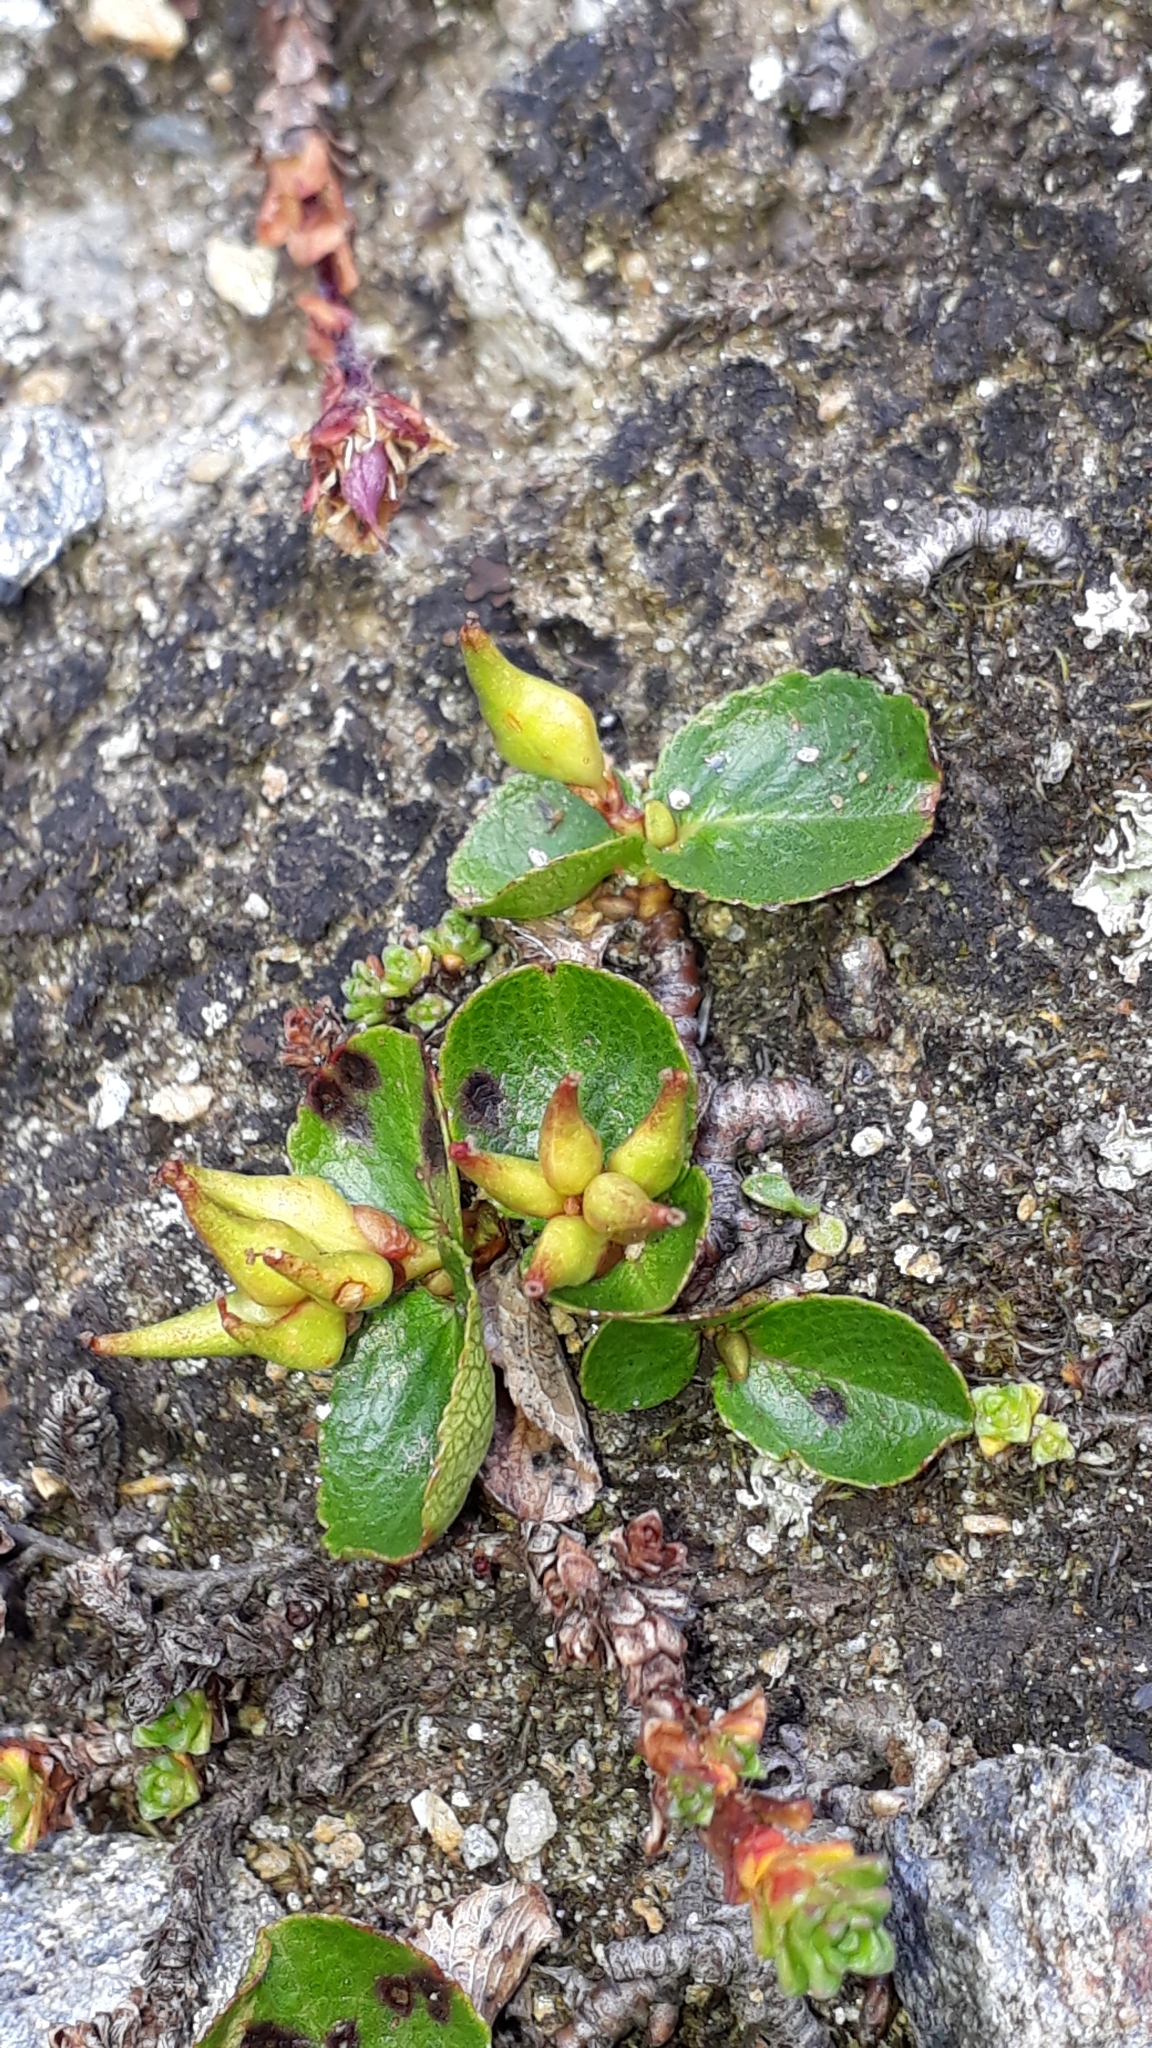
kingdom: Plantae
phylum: Tracheophyta
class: Magnoliopsida
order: Malpighiales
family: Salicaceae
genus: Salix
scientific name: Salix herbacea
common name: Dwarf willow
